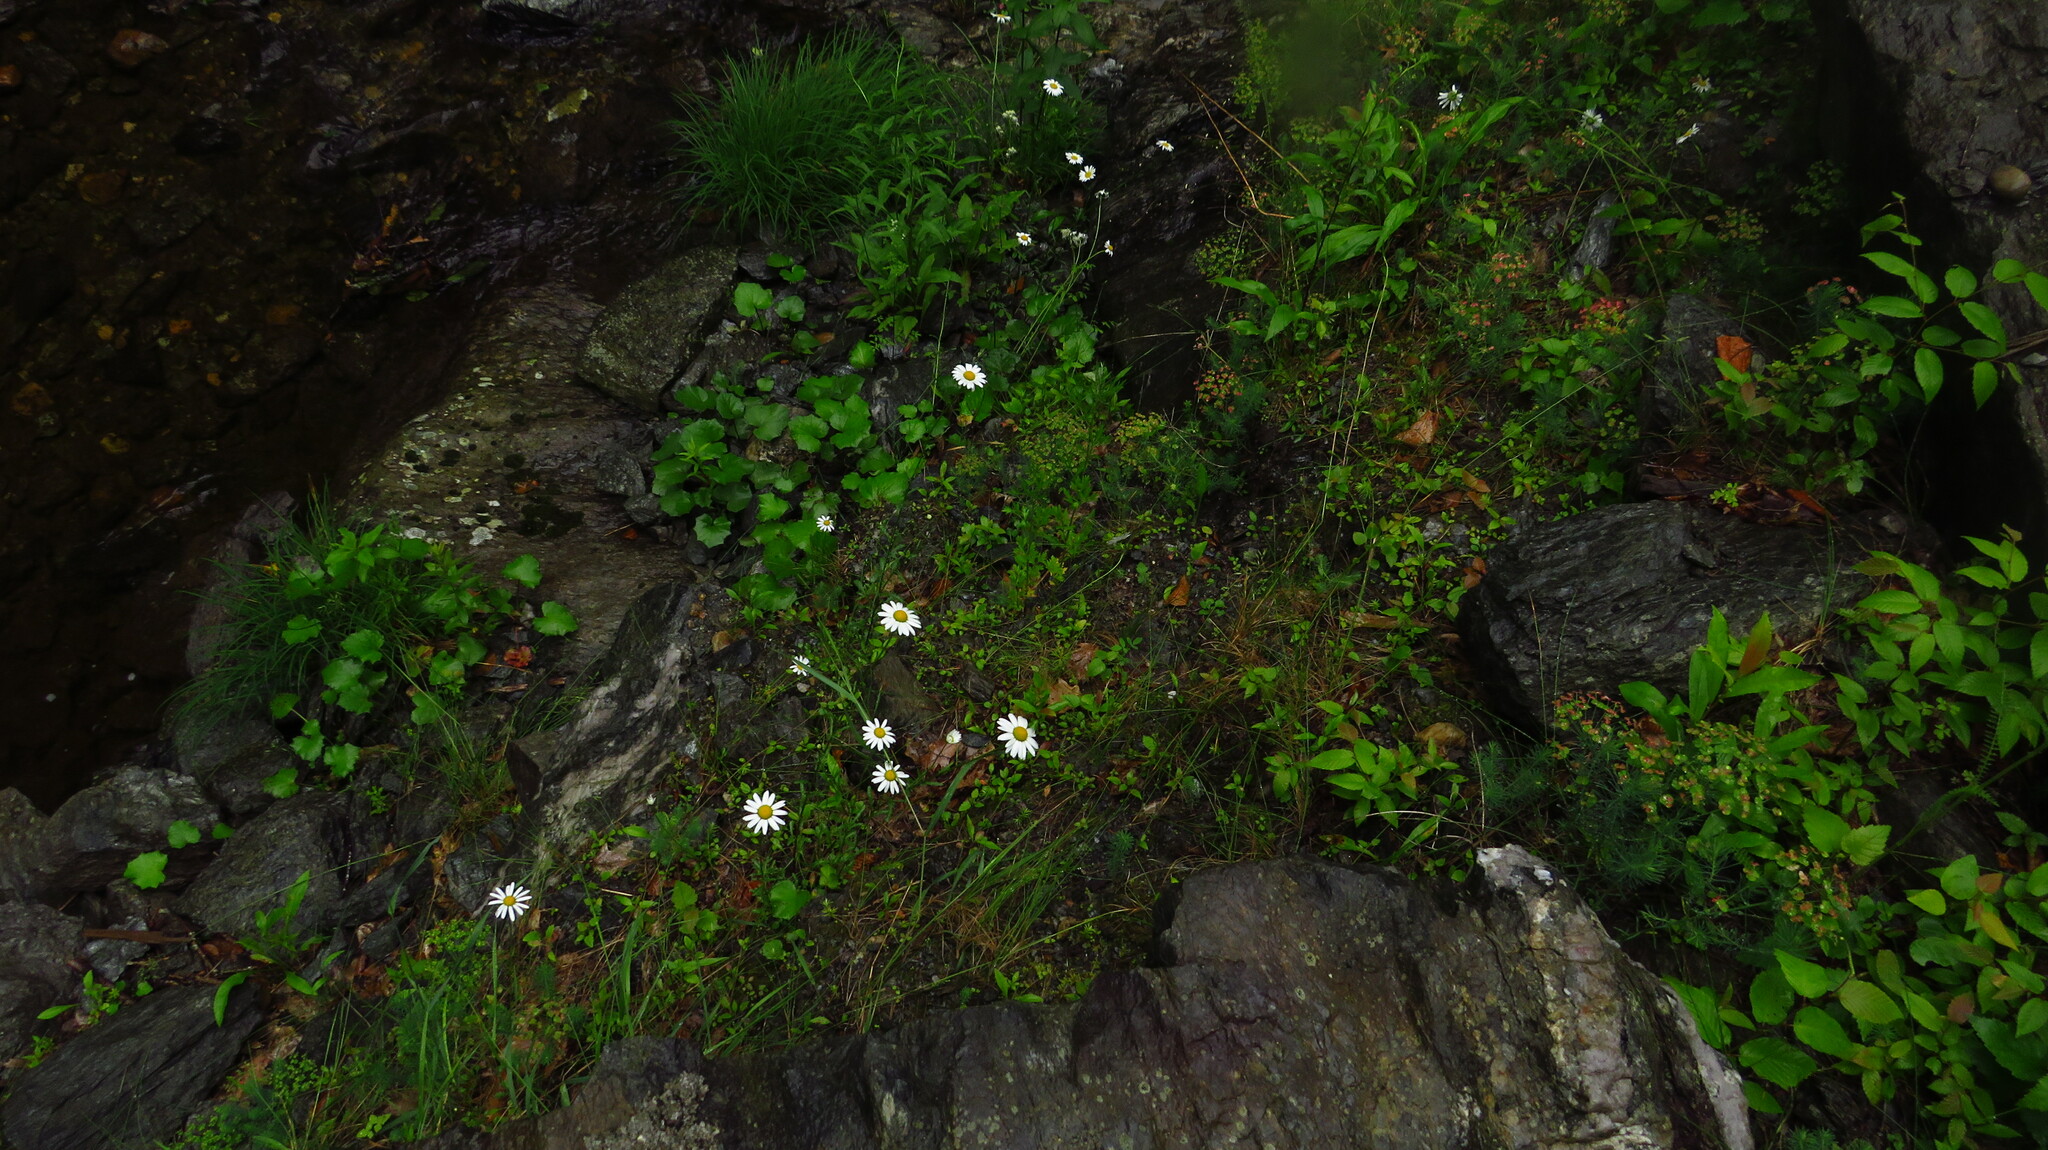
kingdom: Plantae
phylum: Tracheophyta
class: Magnoliopsida
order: Asterales
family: Asteraceae
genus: Leucanthemum
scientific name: Leucanthemum vulgare
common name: Oxeye daisy
